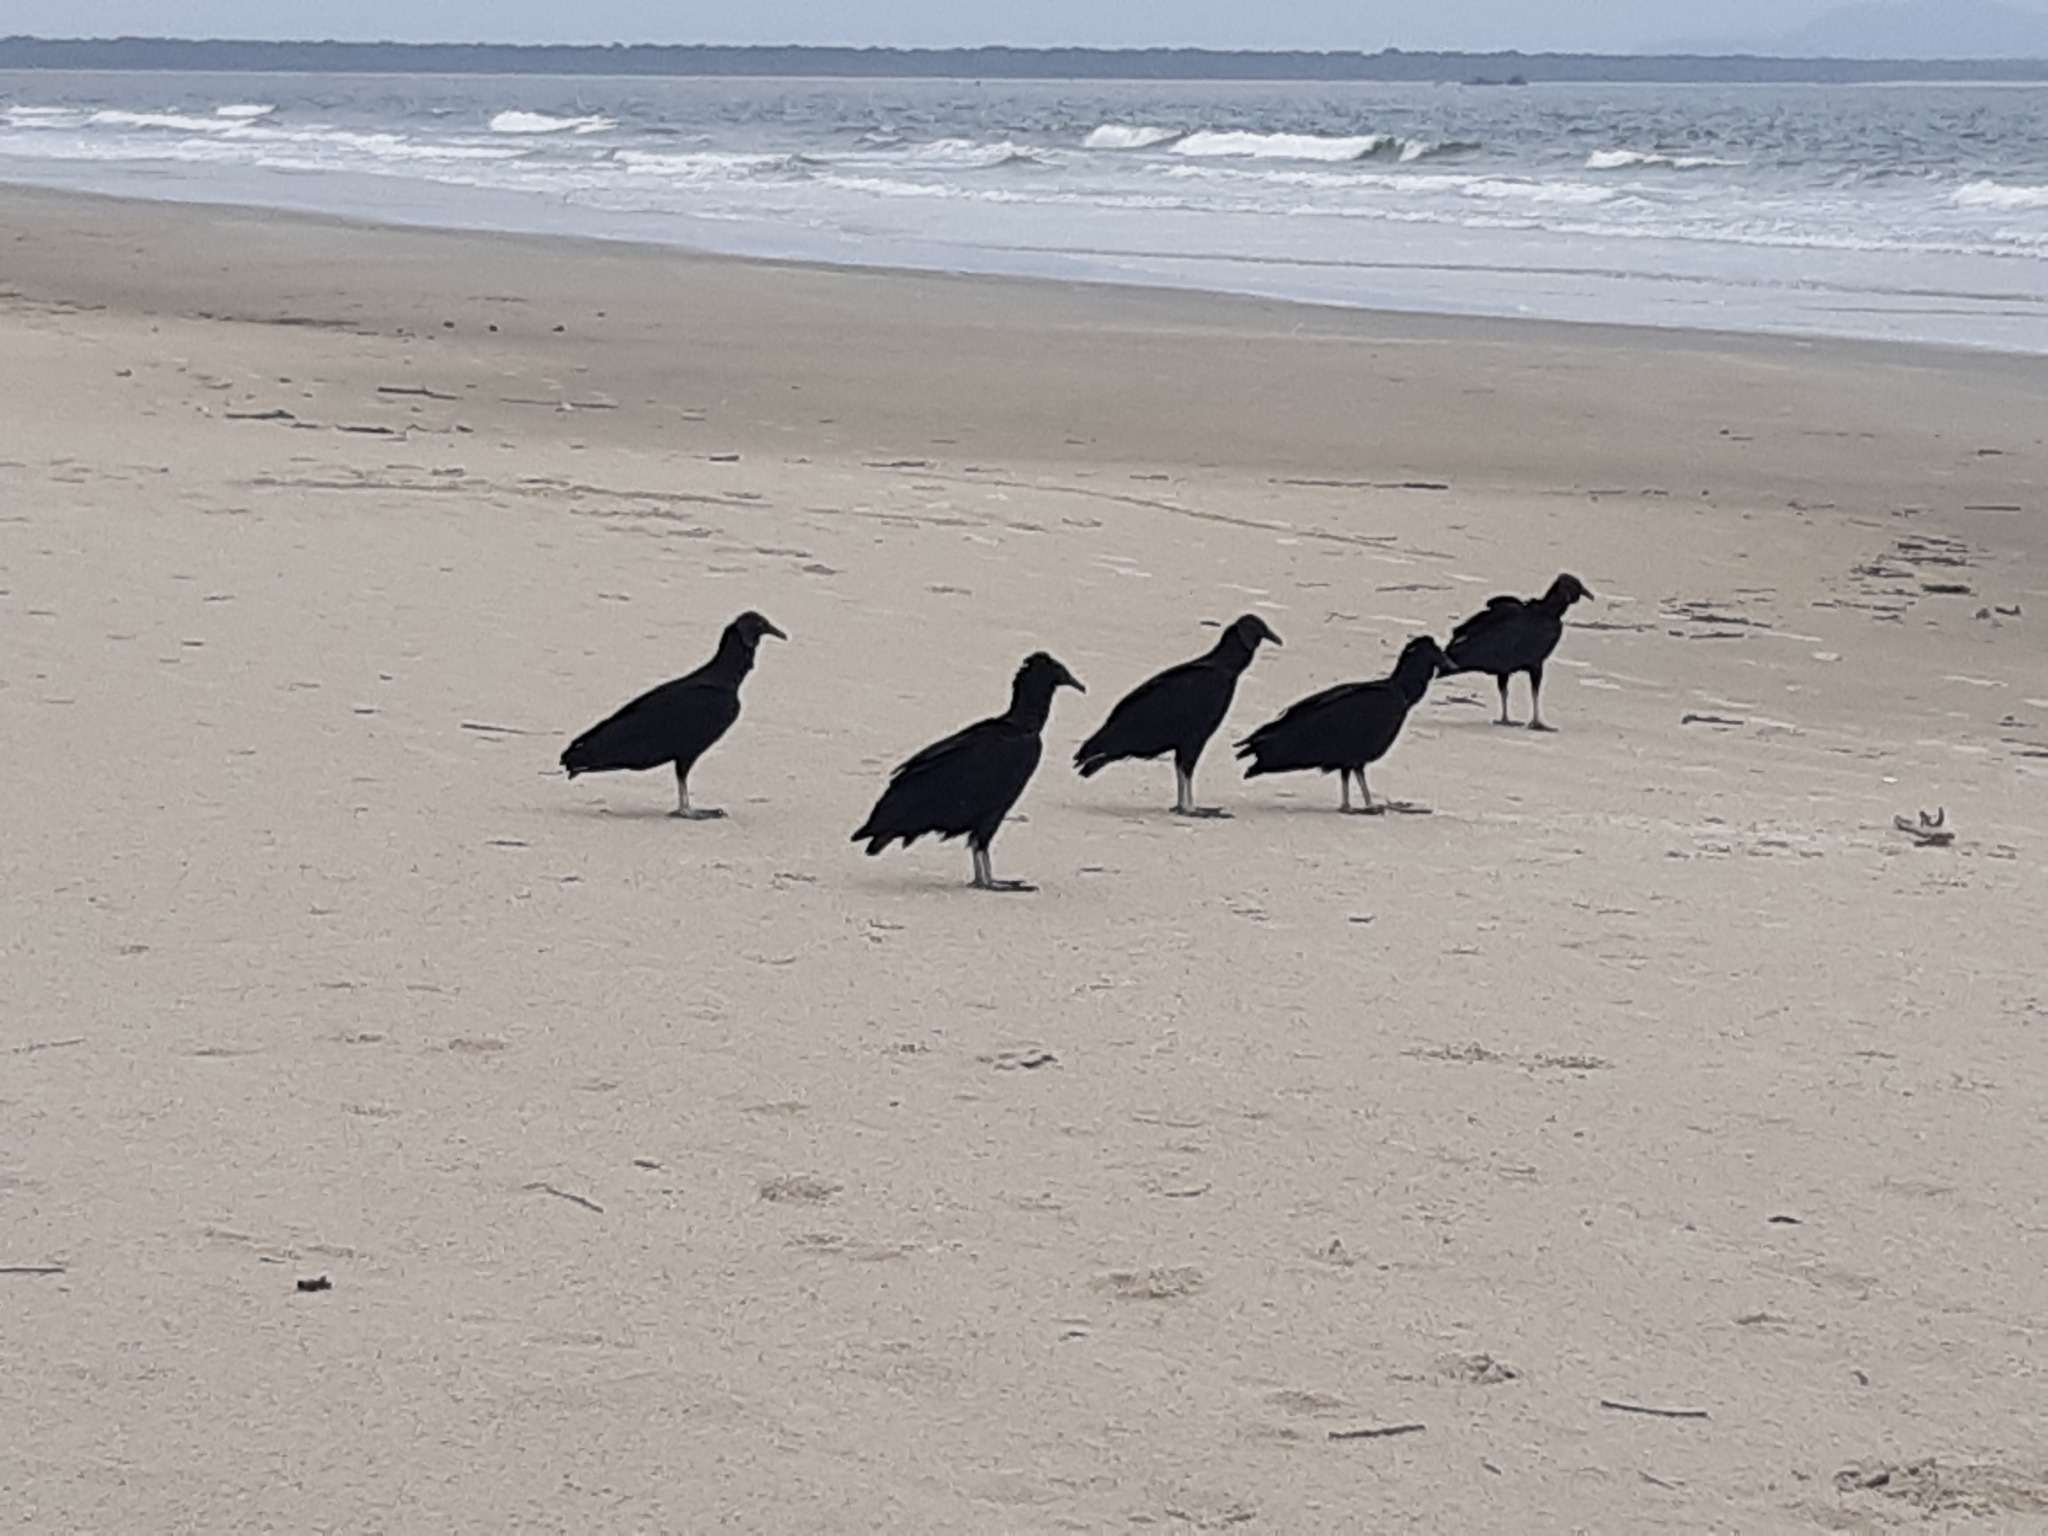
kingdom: Animalia
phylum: Chordata
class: Aves
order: Accipitriformes
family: Cathartidae
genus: Coragyps
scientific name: Coragyps atratus
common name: Black vulture
